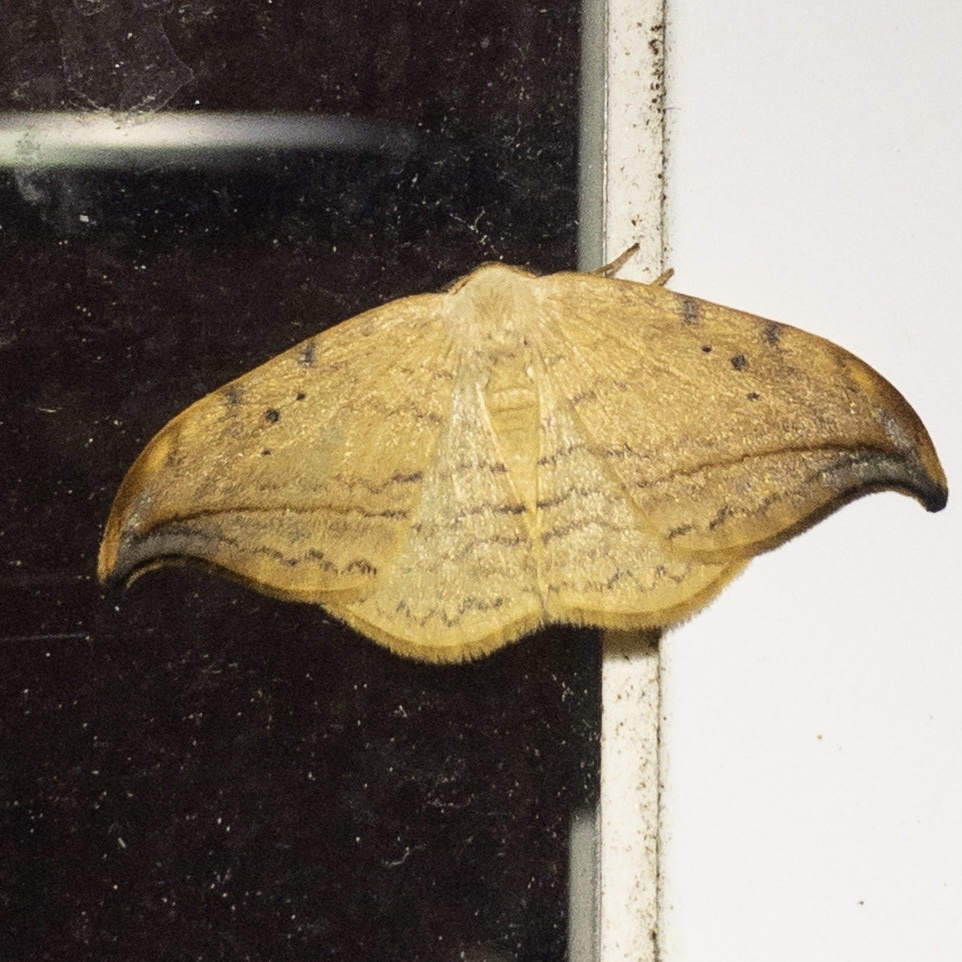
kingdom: Animalia
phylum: Arthropoda
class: Insecta
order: Lepidoptera
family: Drepanidae
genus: Drepana
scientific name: Drepana arcuata
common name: Arched hooktip moth
